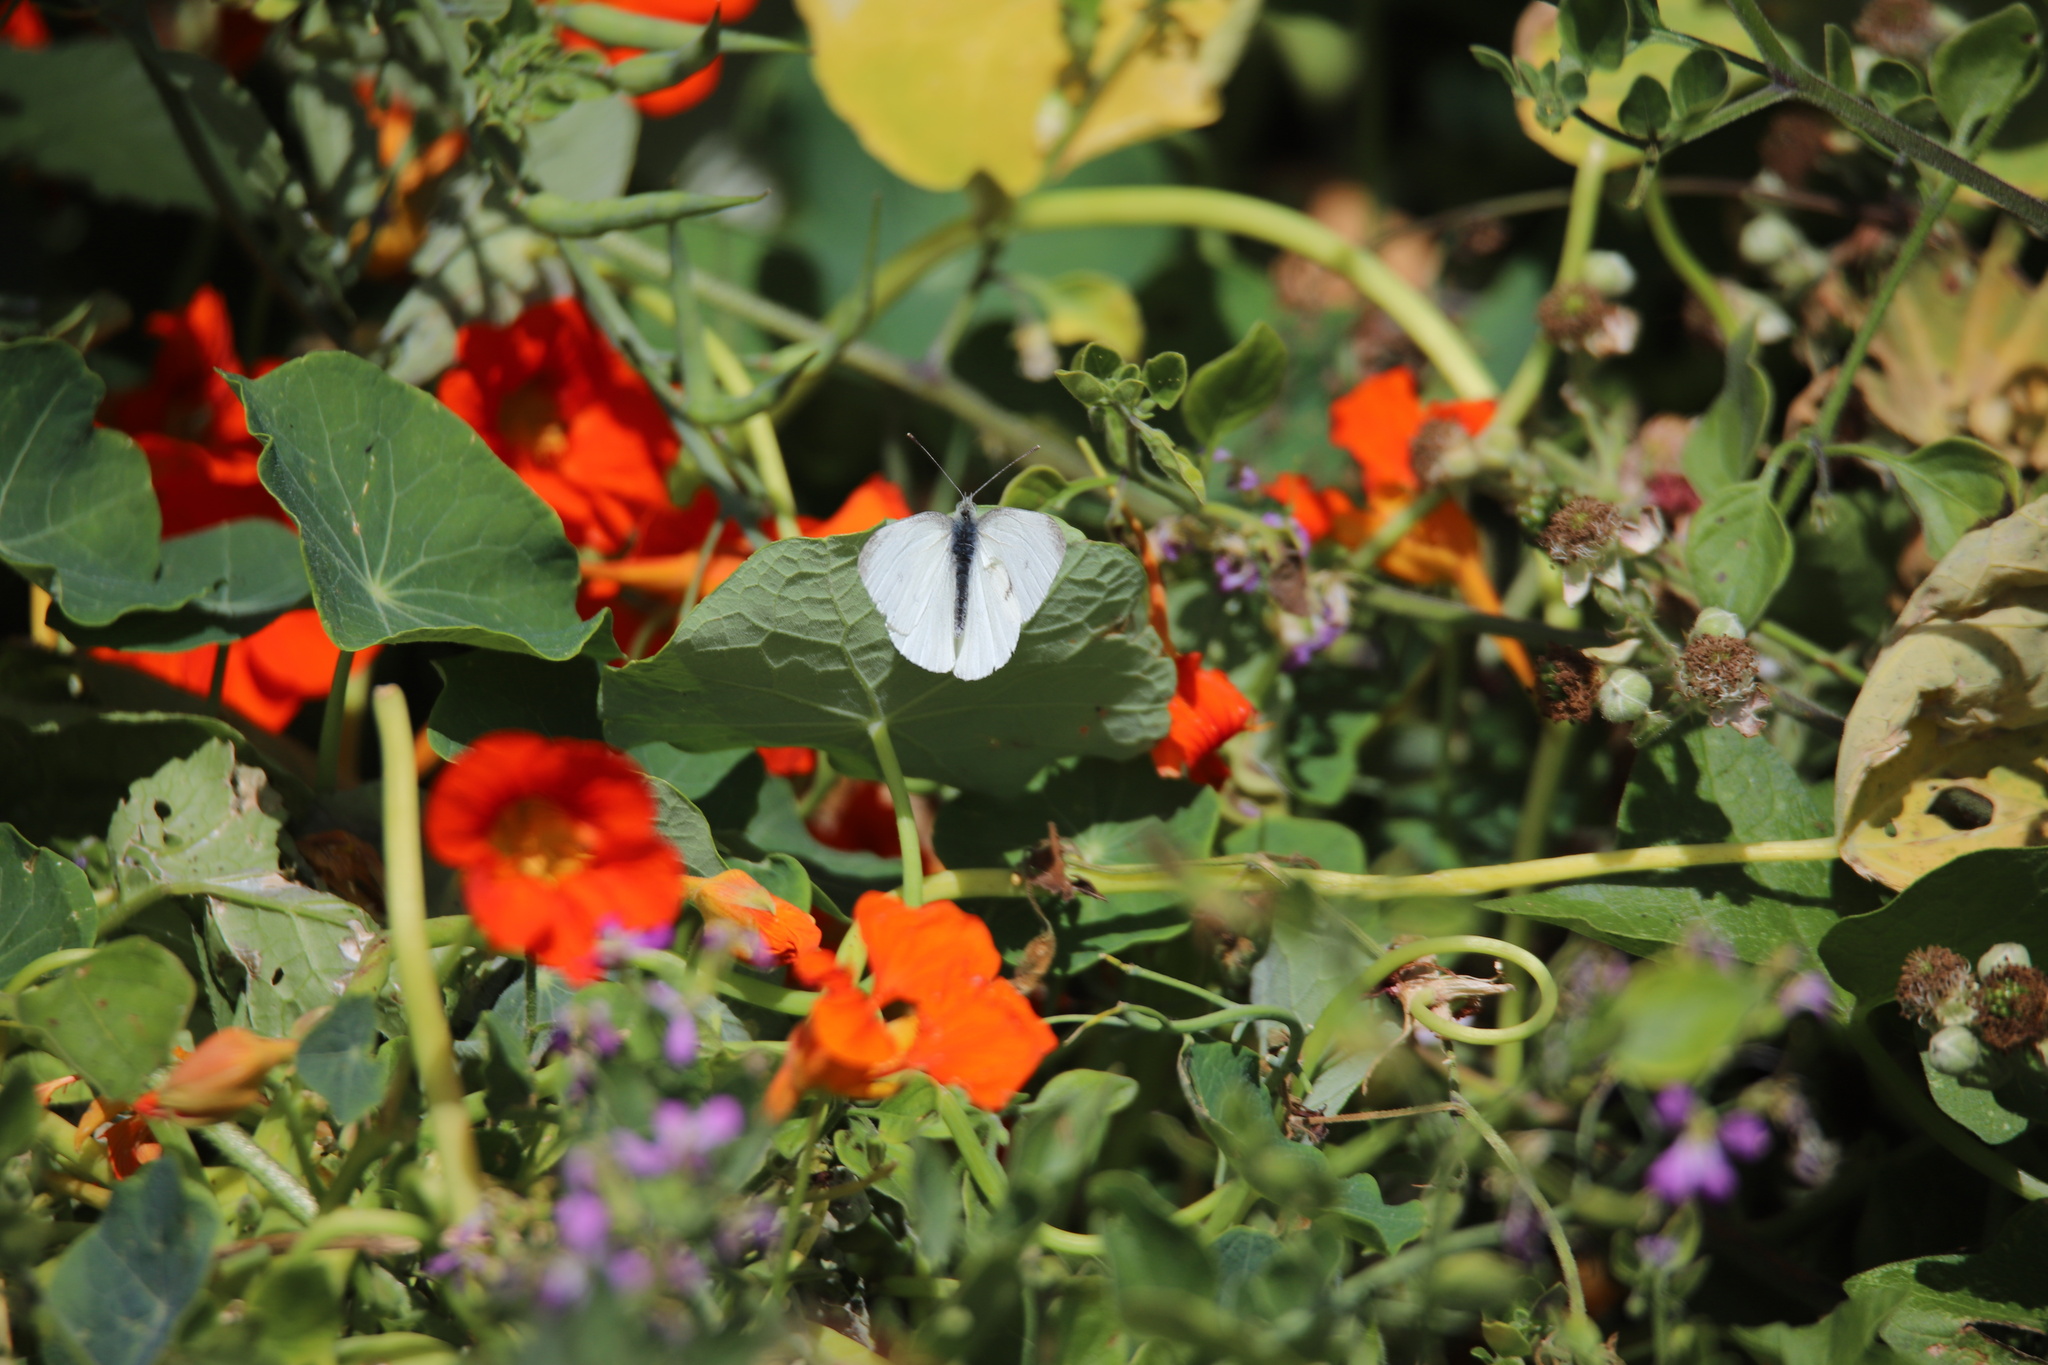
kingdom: Animalia
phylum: Arthropoda
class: Insecta
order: Lepidoptera
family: Pieridae
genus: Pieris
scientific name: Pieris rapae
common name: Small white
